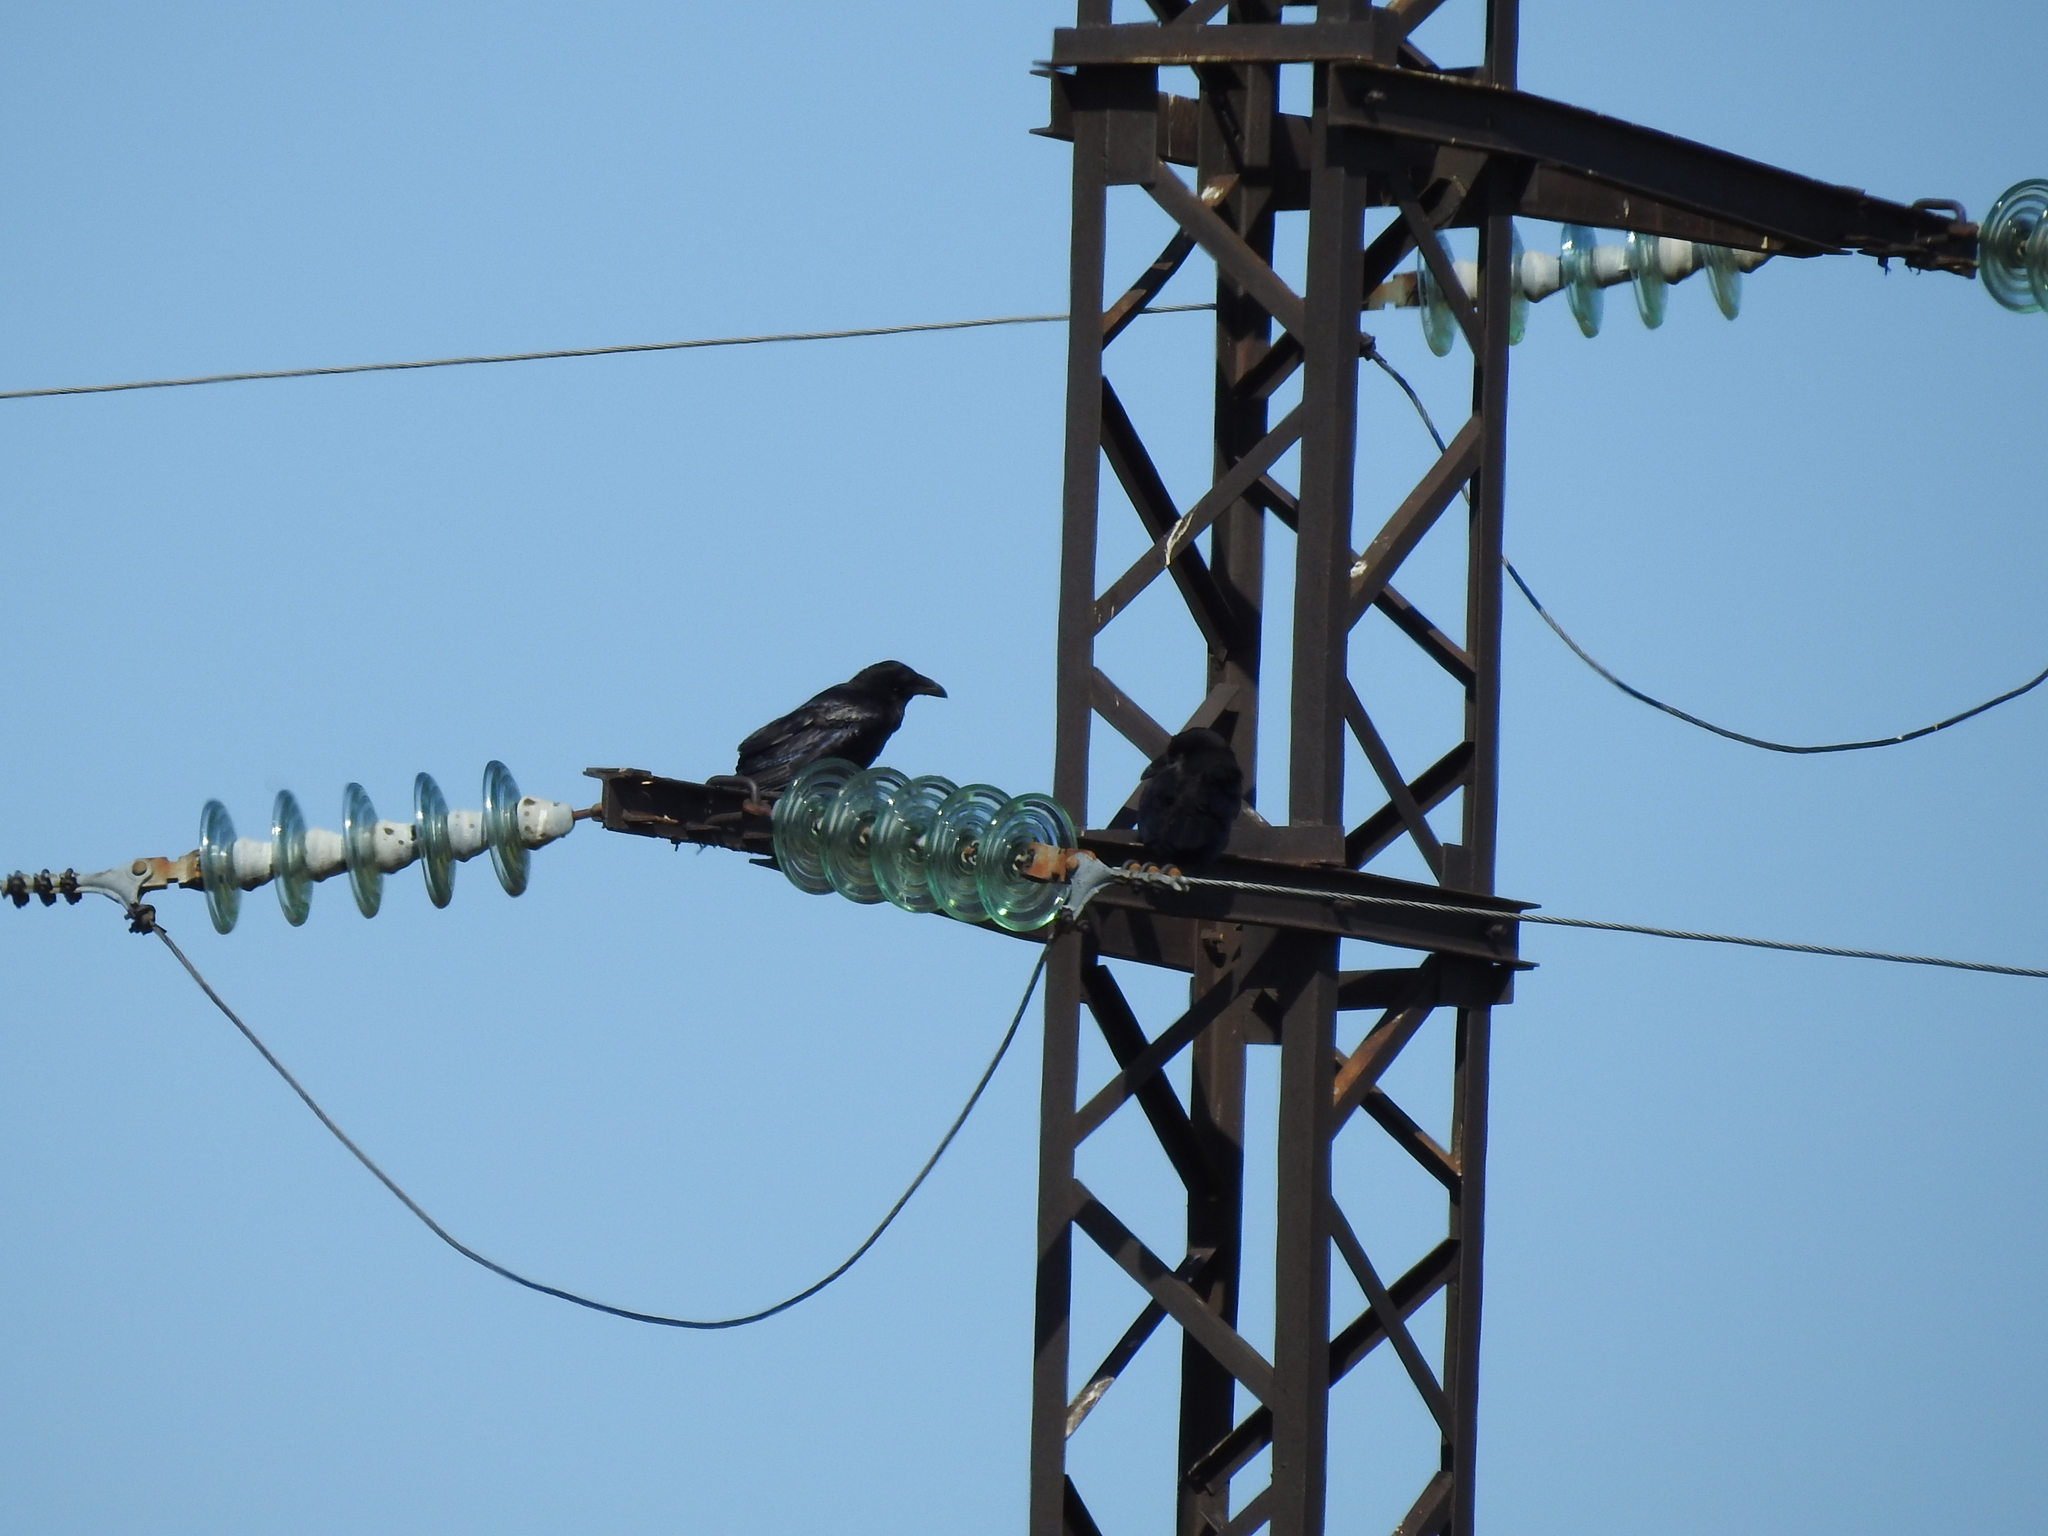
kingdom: Animalia
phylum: Chordata
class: Aves
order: Passeriformes
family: Corvidae
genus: Corvus
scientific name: Corvus corax
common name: Common raven
